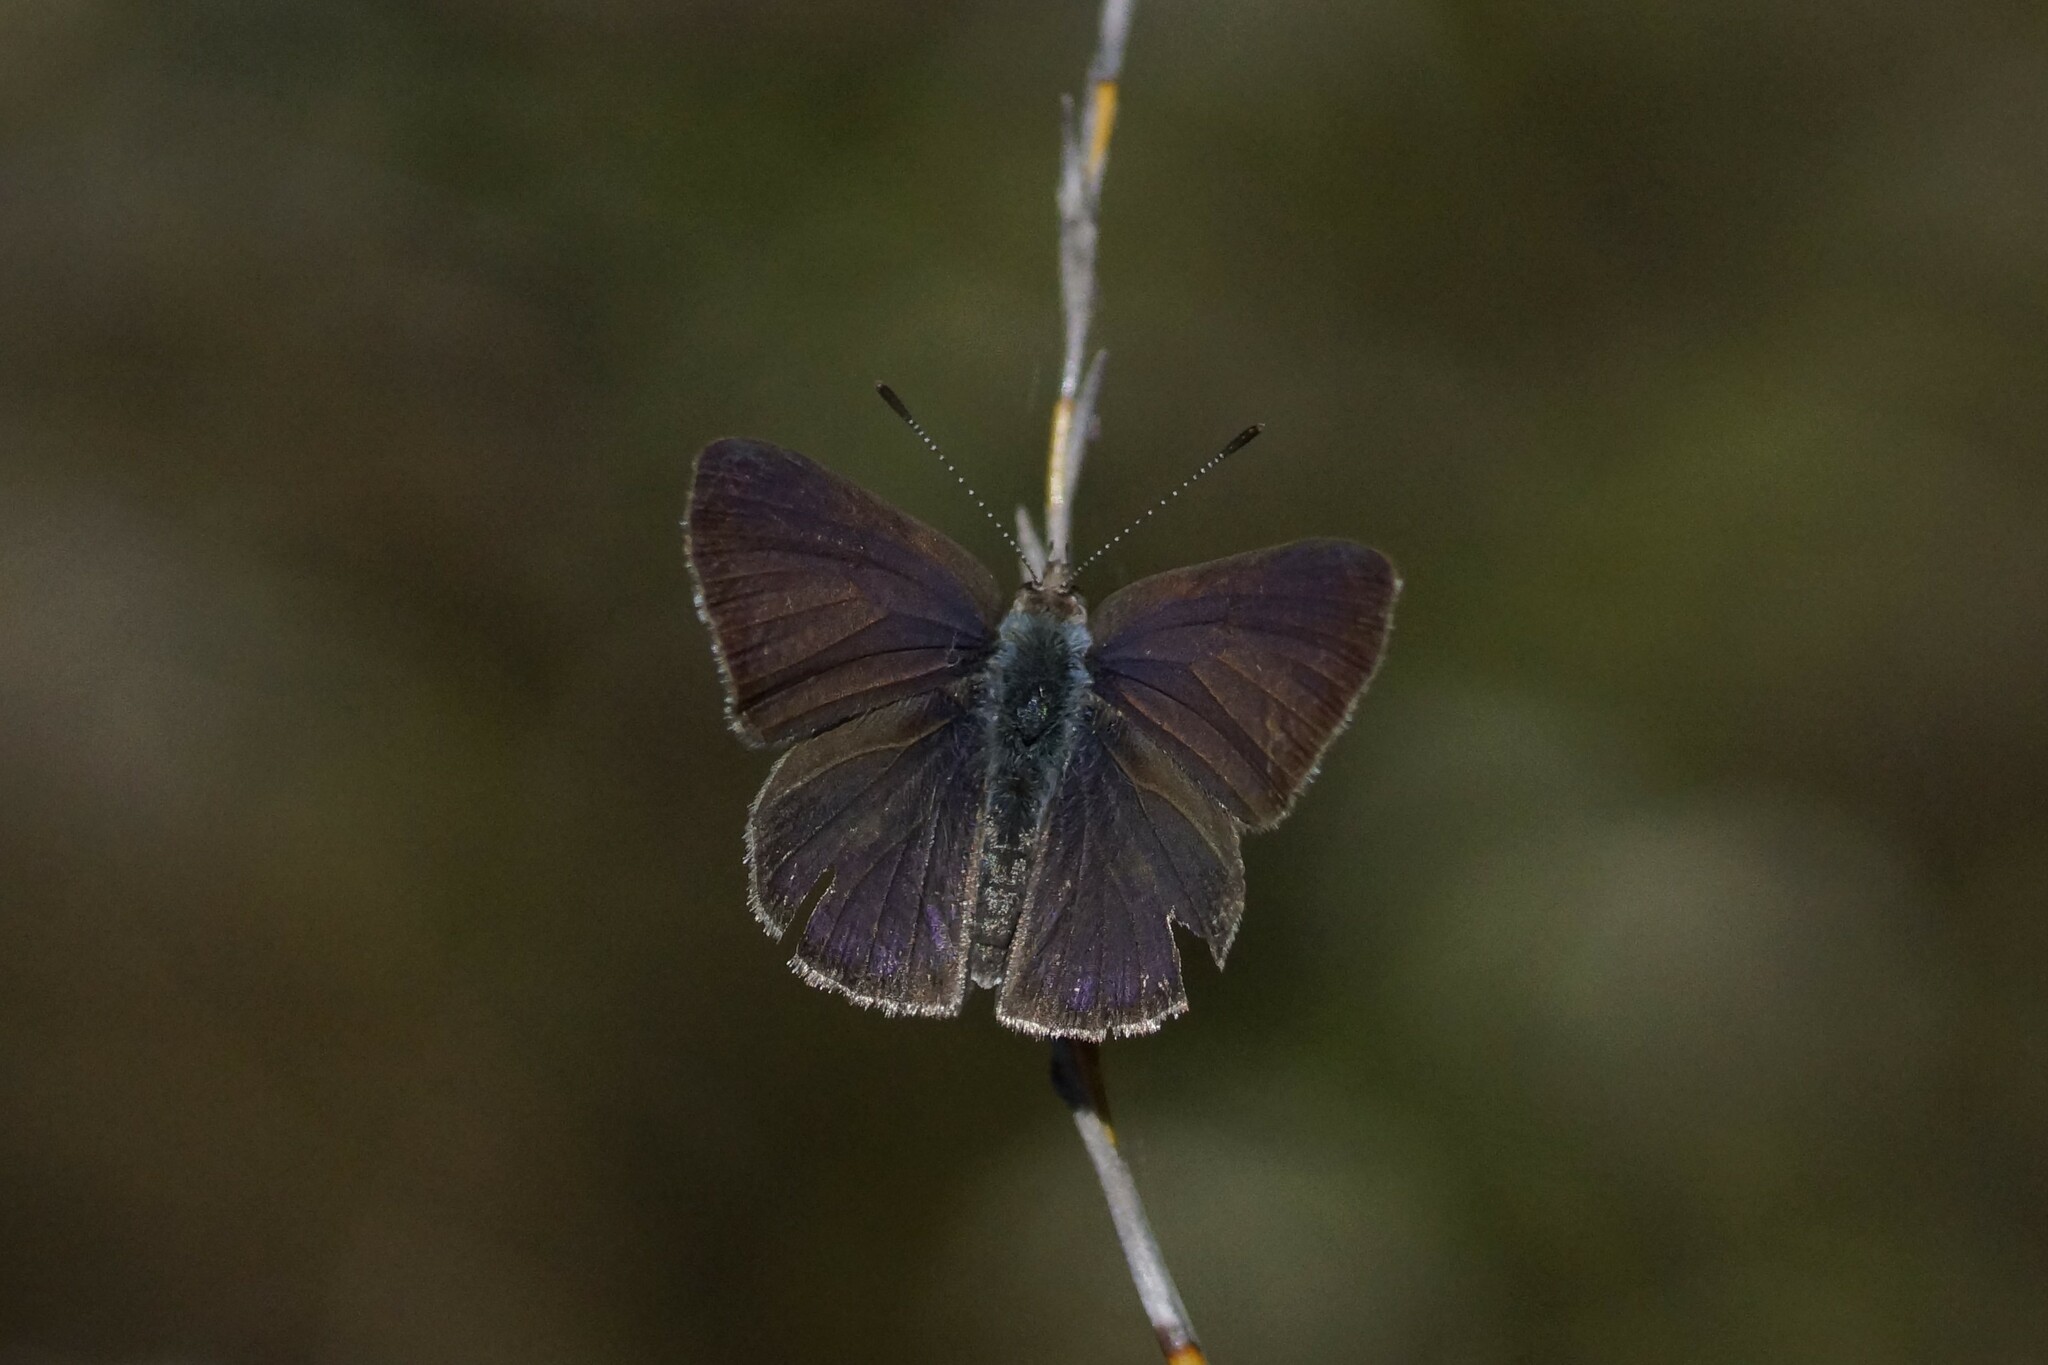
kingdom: Animalia
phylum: Arthropoda
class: Insecta
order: Lepidoptera
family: Lycaenidae
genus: Candalides
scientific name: Candalides
